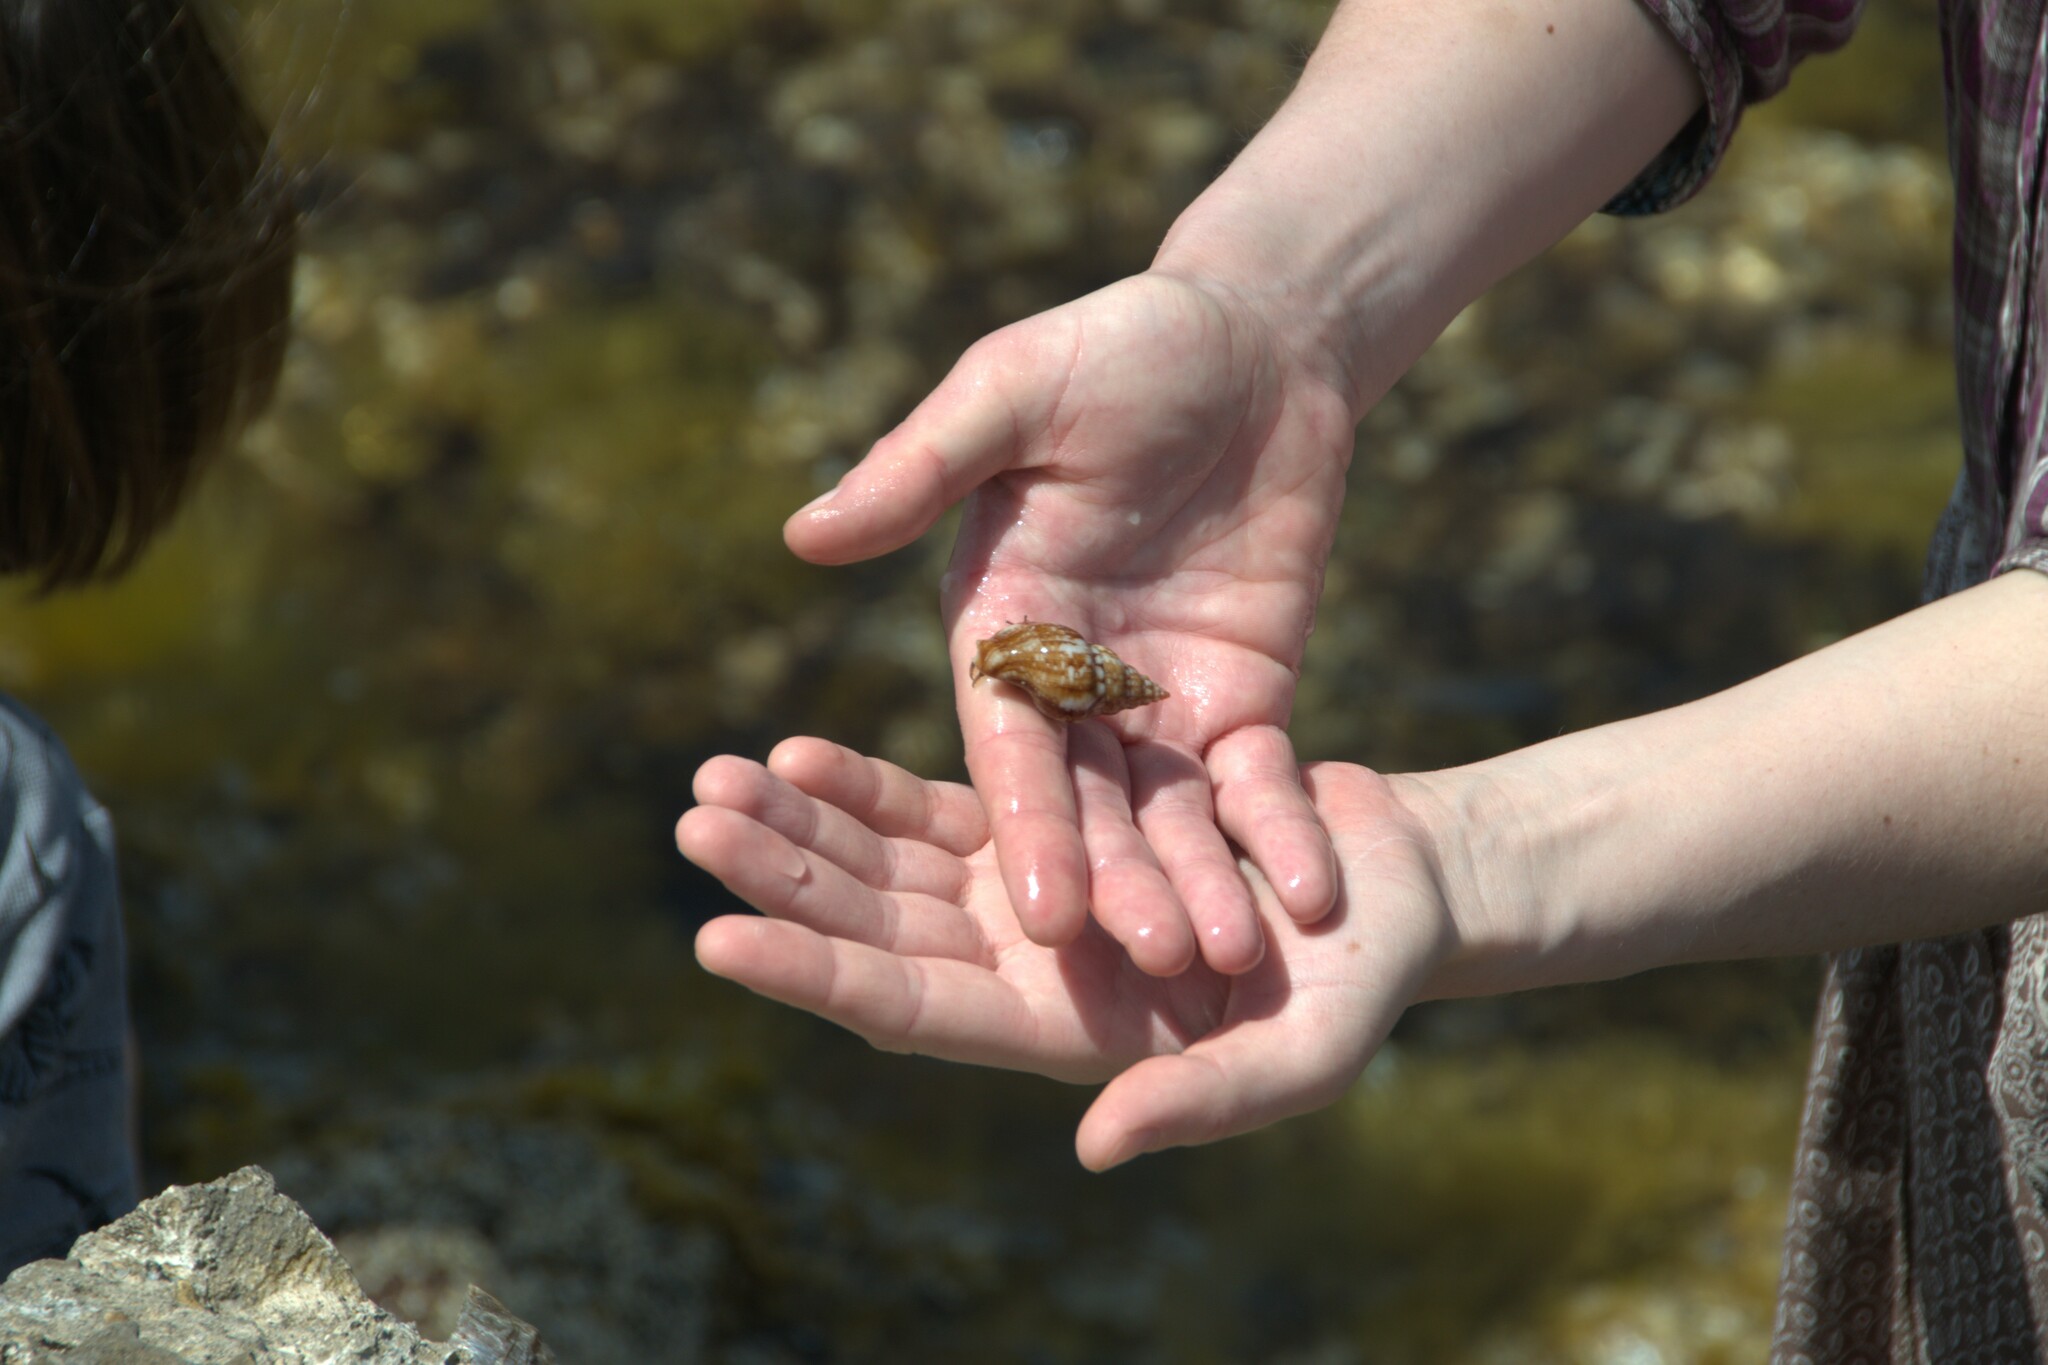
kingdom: Animalia
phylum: Mollusca
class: Gastropoda
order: Neogastropoda
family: Tudiclidae
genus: Euthria
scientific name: Euthria cornea
